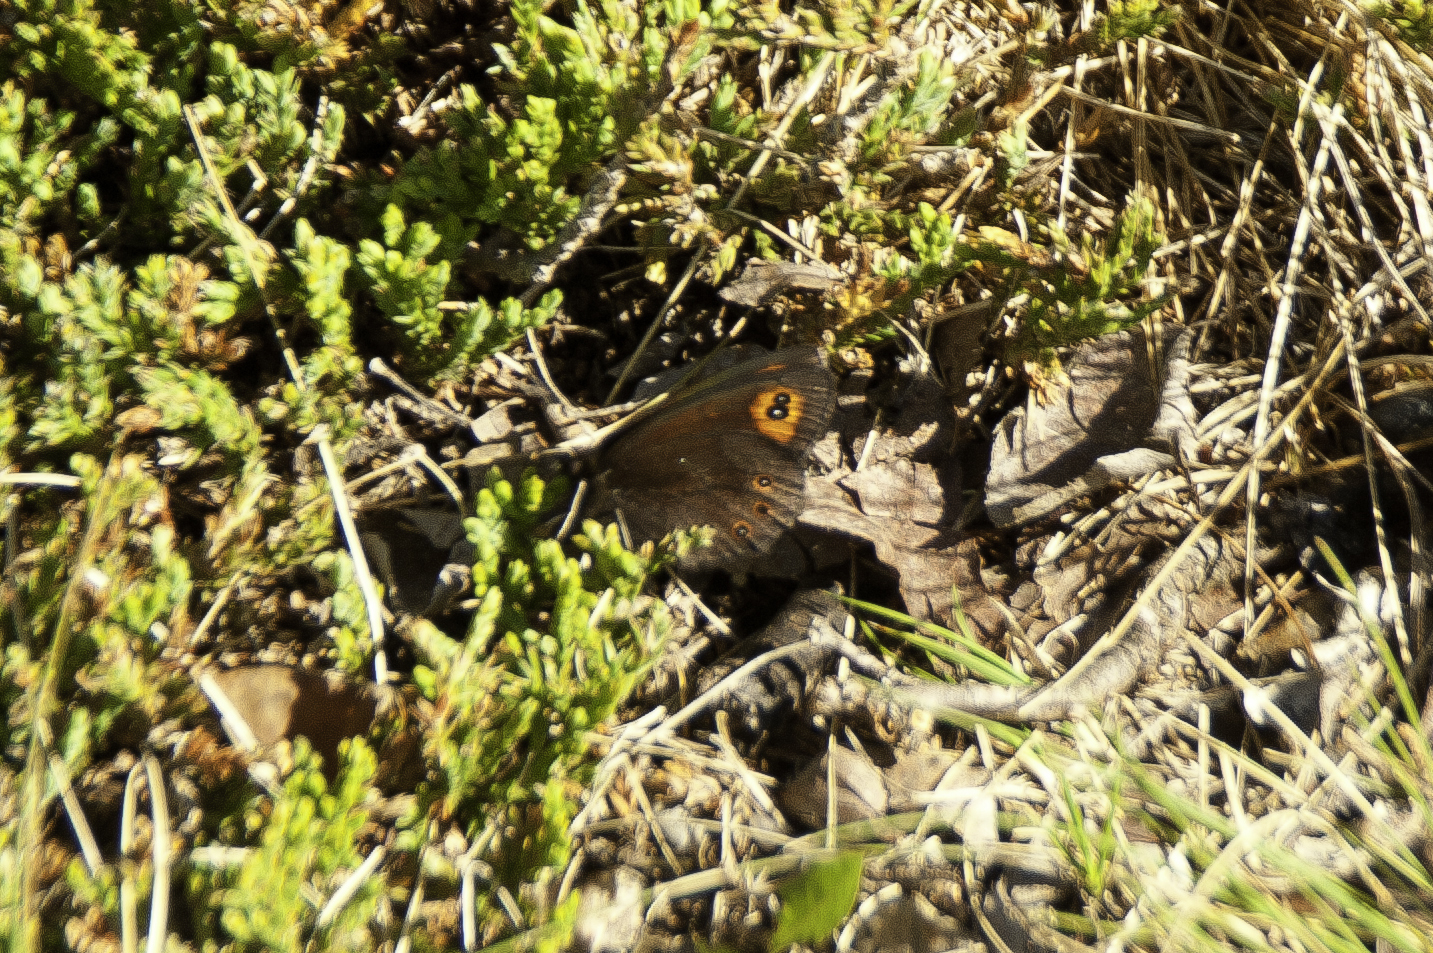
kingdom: Animalia
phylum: Arthropoda
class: Insecta
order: Lepidoptera
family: Nymphalidae
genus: Erebia
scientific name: Erebia epipsodea
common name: Common alpine
